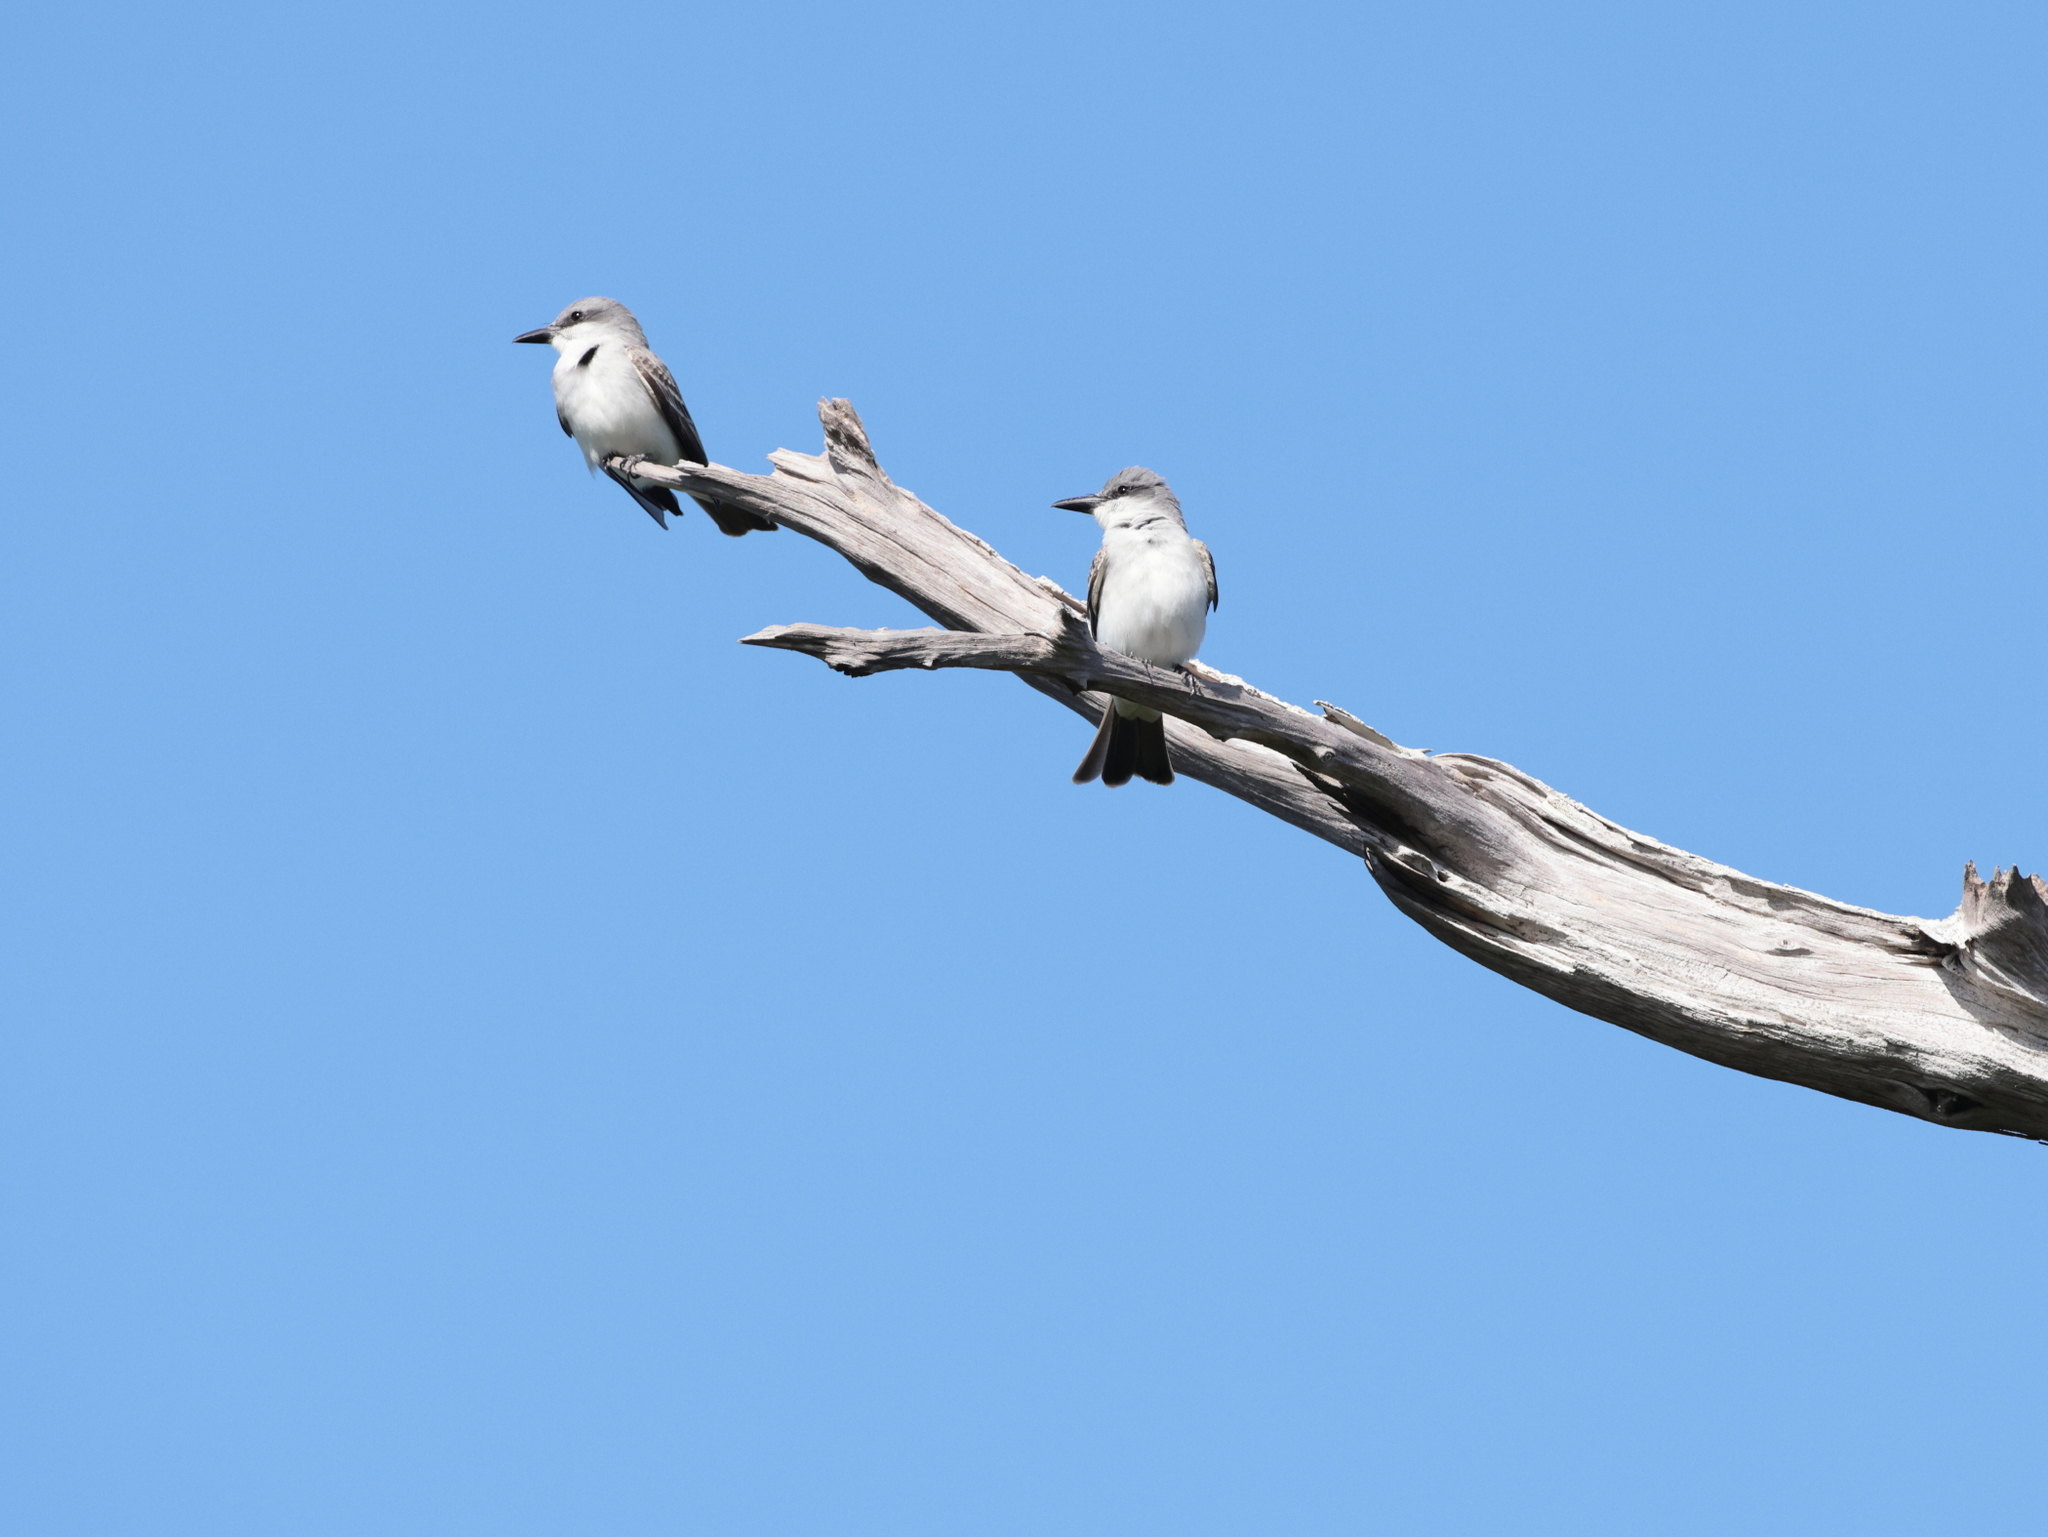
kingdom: Animalia
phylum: Chordata
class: Aves
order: Passeriformes
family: Tyrannidae
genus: Tyrannus
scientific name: Tyrannus dominicensis
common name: Gray kingbird
